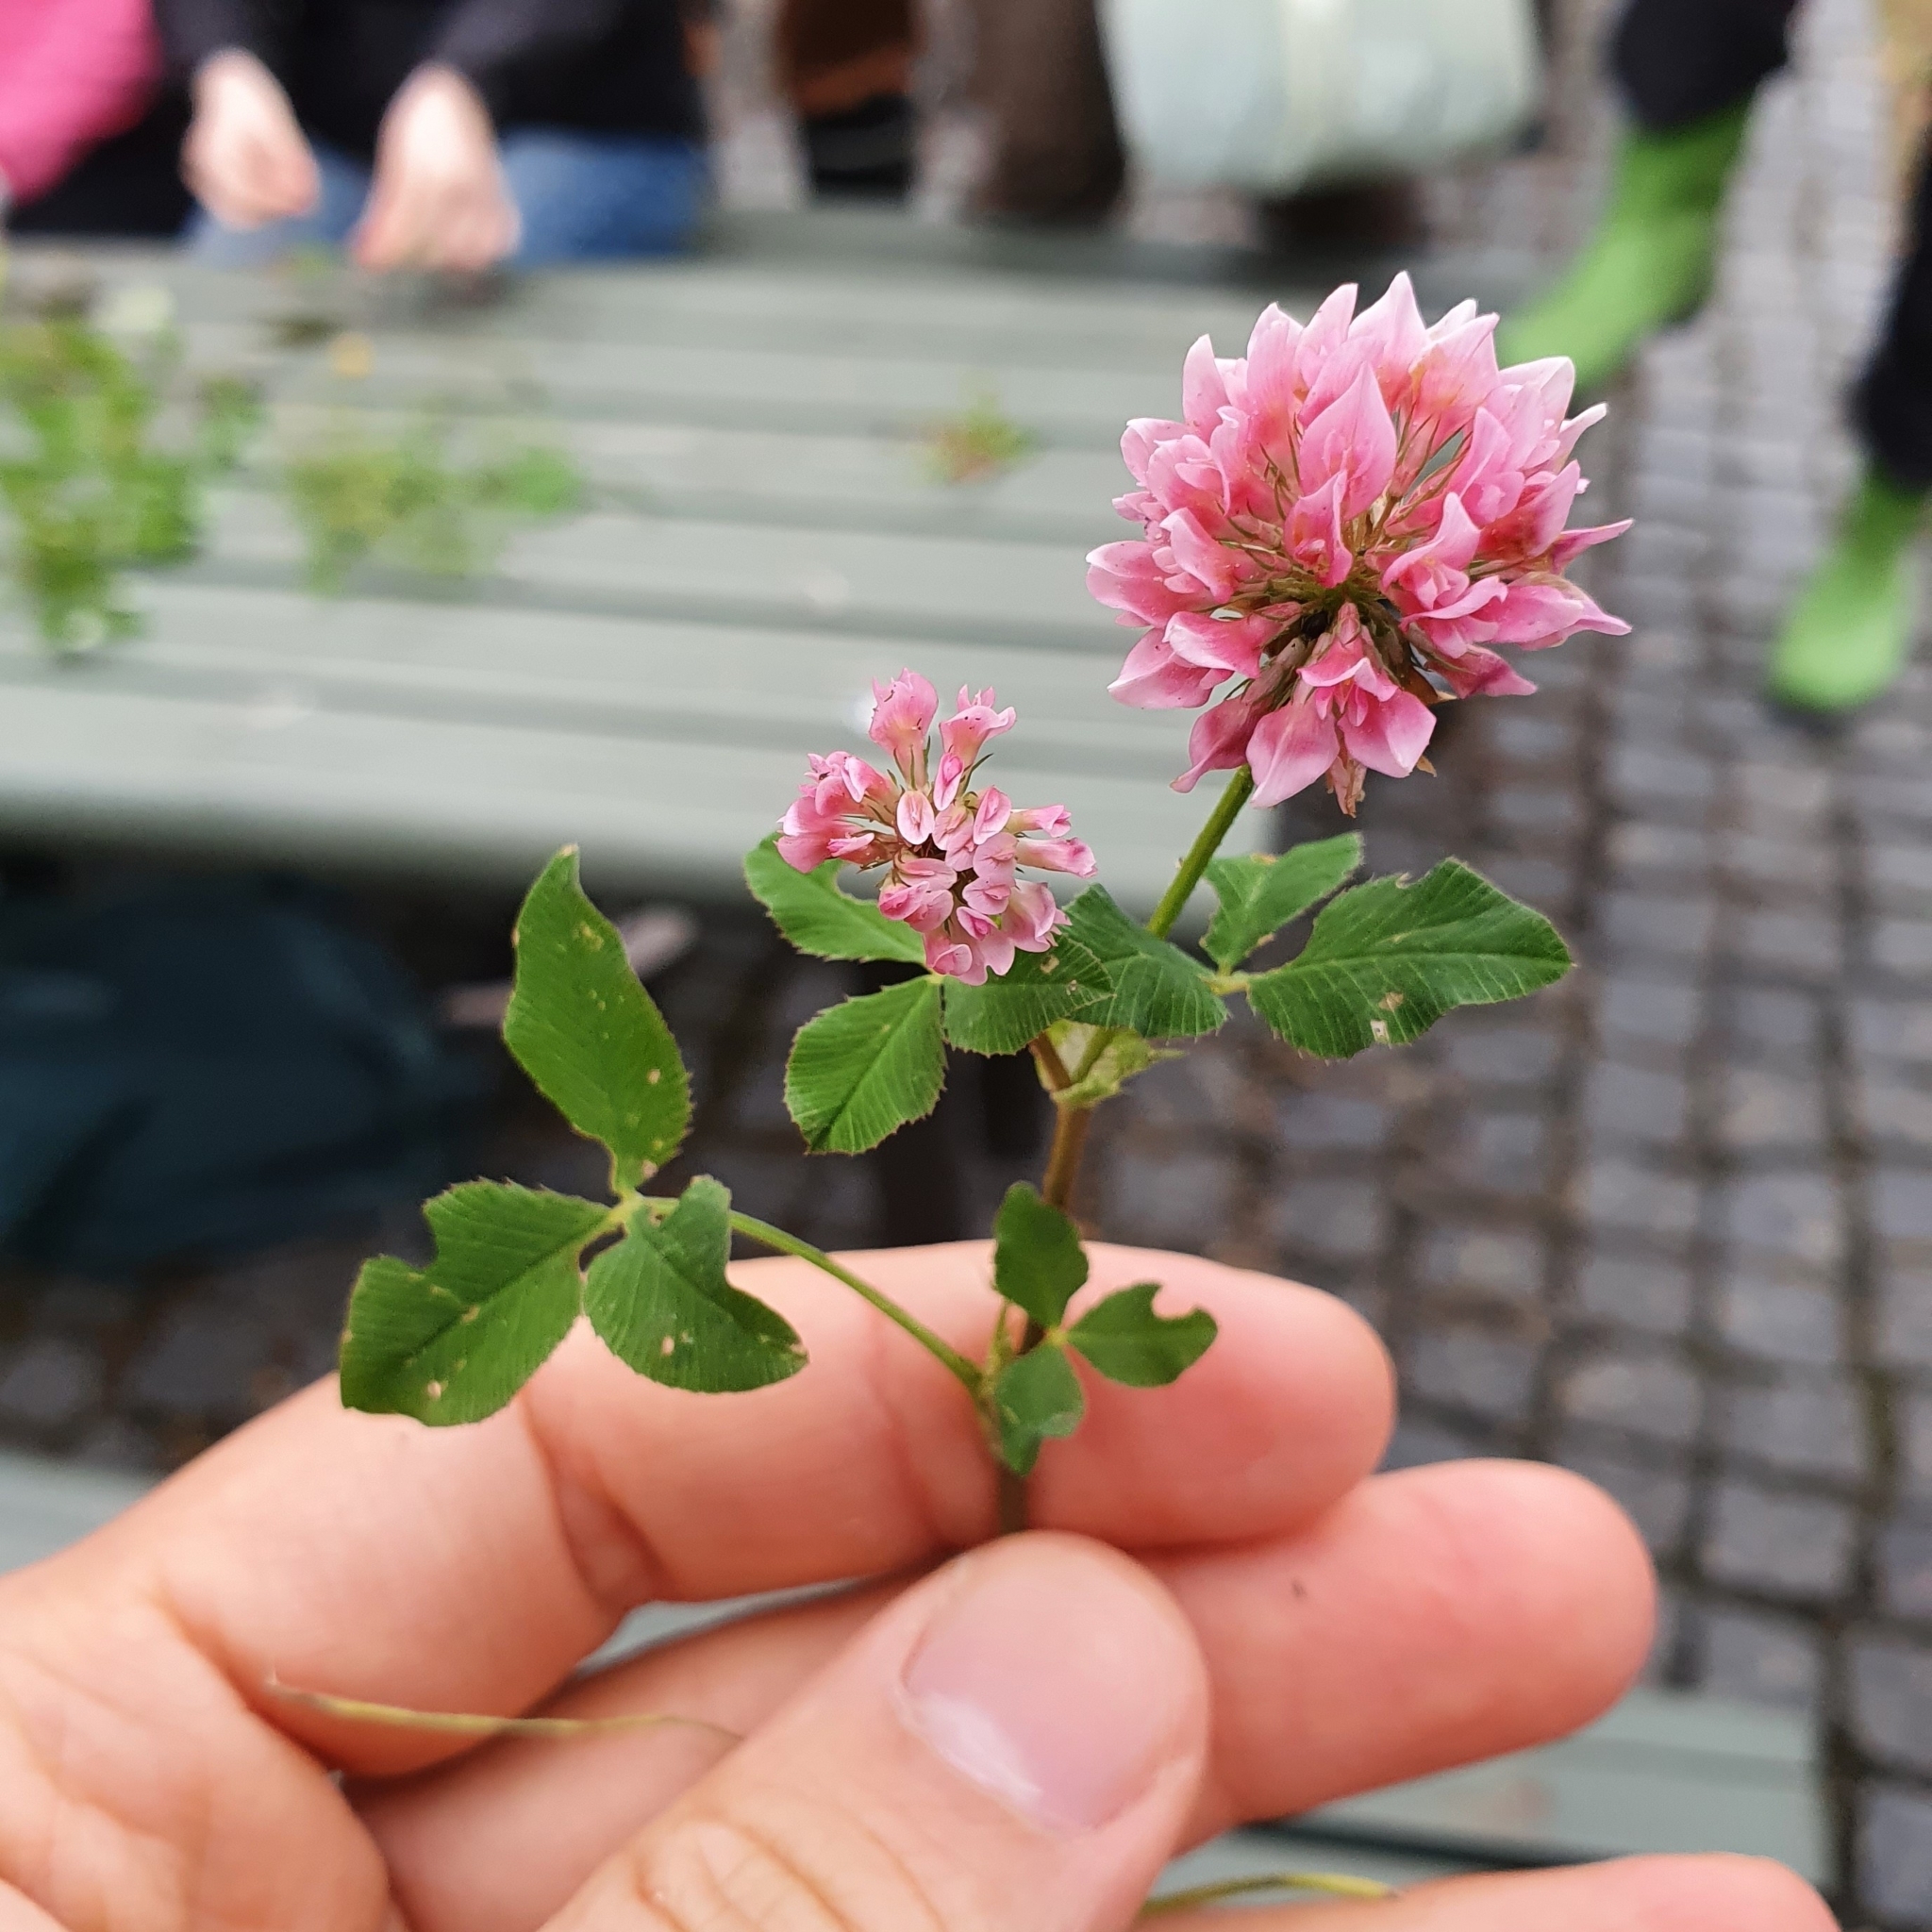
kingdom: Plantae
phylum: Tracheophyta
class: Magnoliopsida
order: Fabales
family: Fabaceae
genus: Trifolium
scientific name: Trifolium hybridum
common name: Alsike clover
